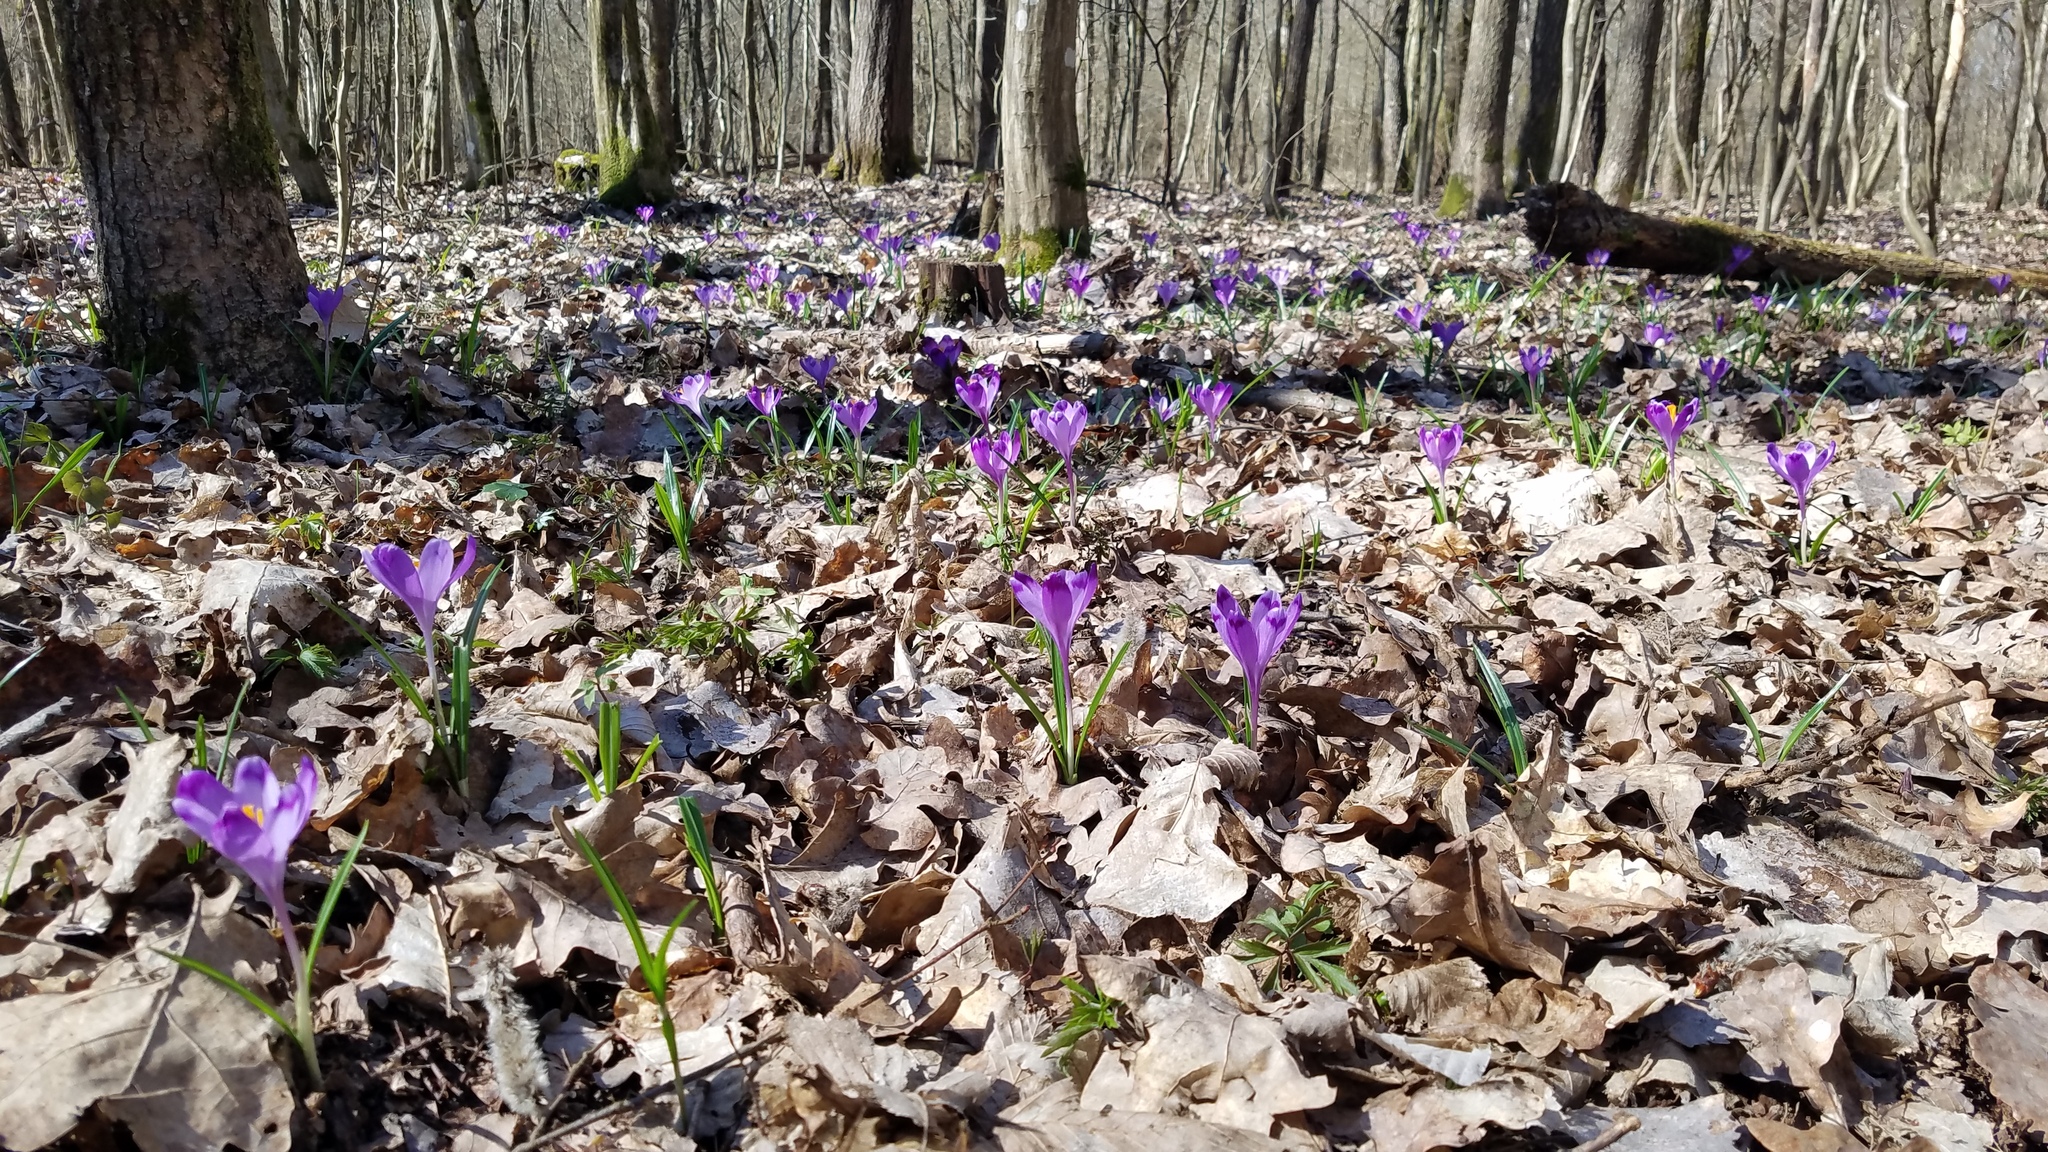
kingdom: Plantae
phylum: Tracheophyta
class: Liliopsida
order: Asparagales
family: Iridaceae
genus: Crocus
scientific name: Crocus heuffelianus
